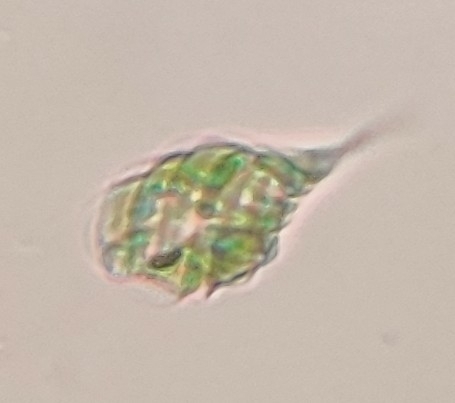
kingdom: Protozoa
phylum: Euglenozoa
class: Euglenoidea
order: Euglenida
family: Euglenaceae
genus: Monomorphina
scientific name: Monomorphina pyrum
